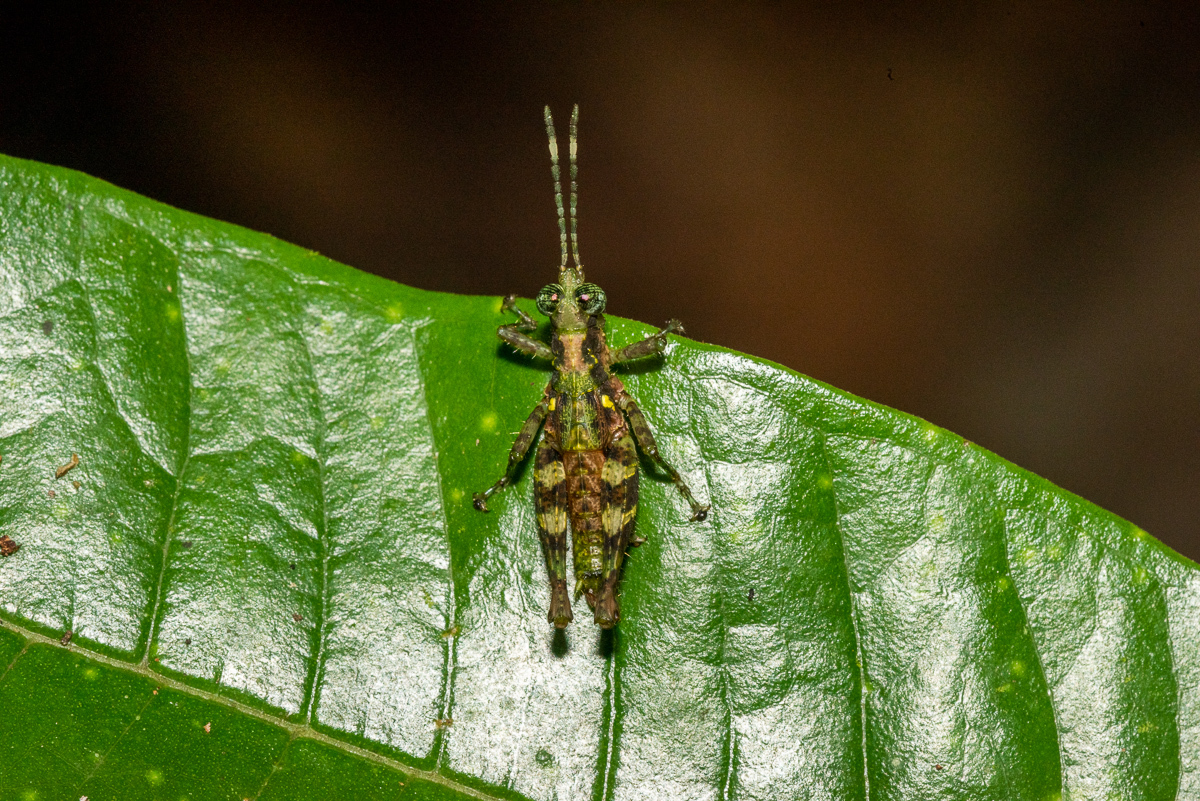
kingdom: Animalia
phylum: Arthropoda
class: Insecta
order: Orthoptera
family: Acrididae
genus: Sclerophilacris
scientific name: Sclerophilacris corticola
